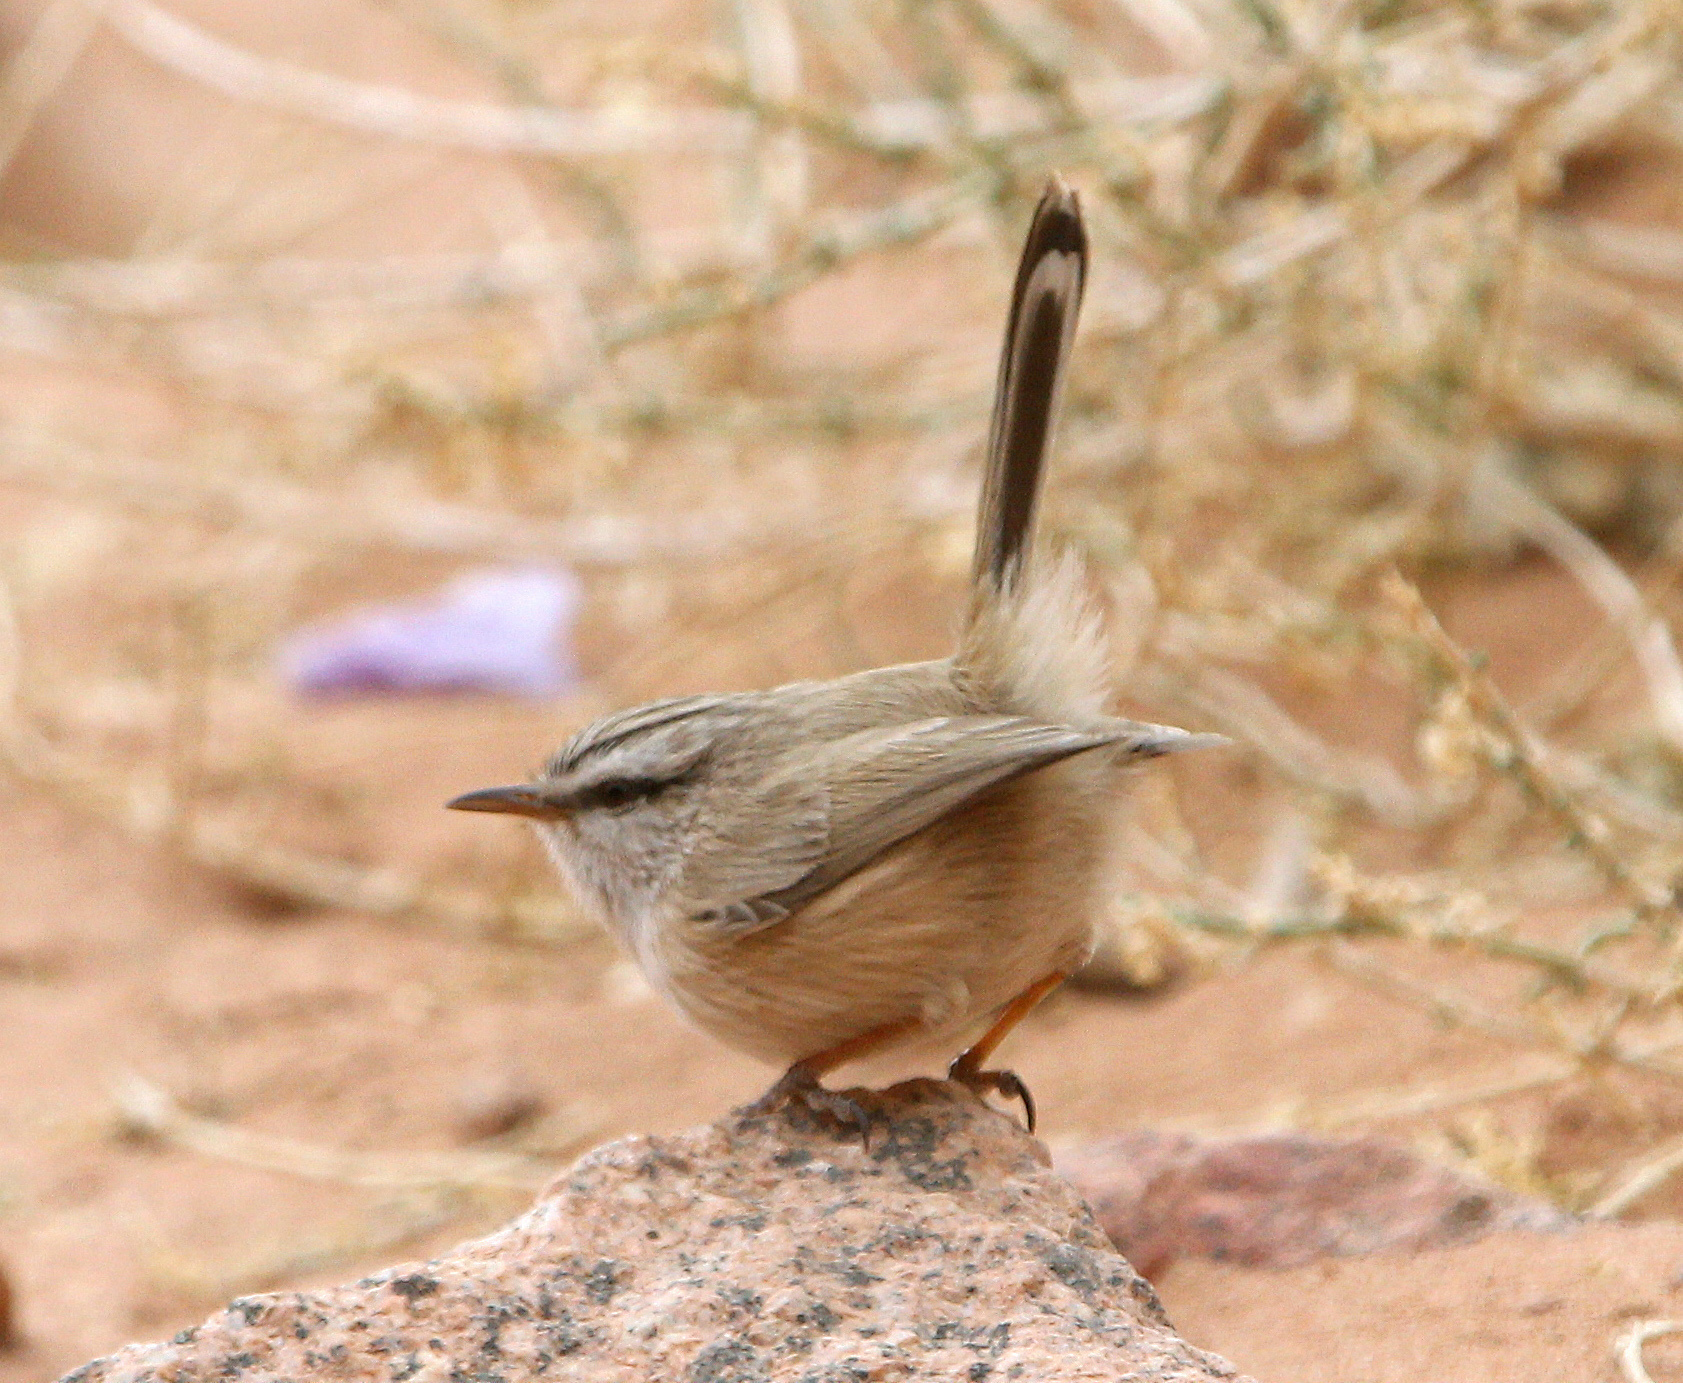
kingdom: Animalia
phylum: Chordata
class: Aves
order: Passeriformes
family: Scotocercidae
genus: Scotocerca
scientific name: Scotocerca inquieta
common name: Scrub warbler
